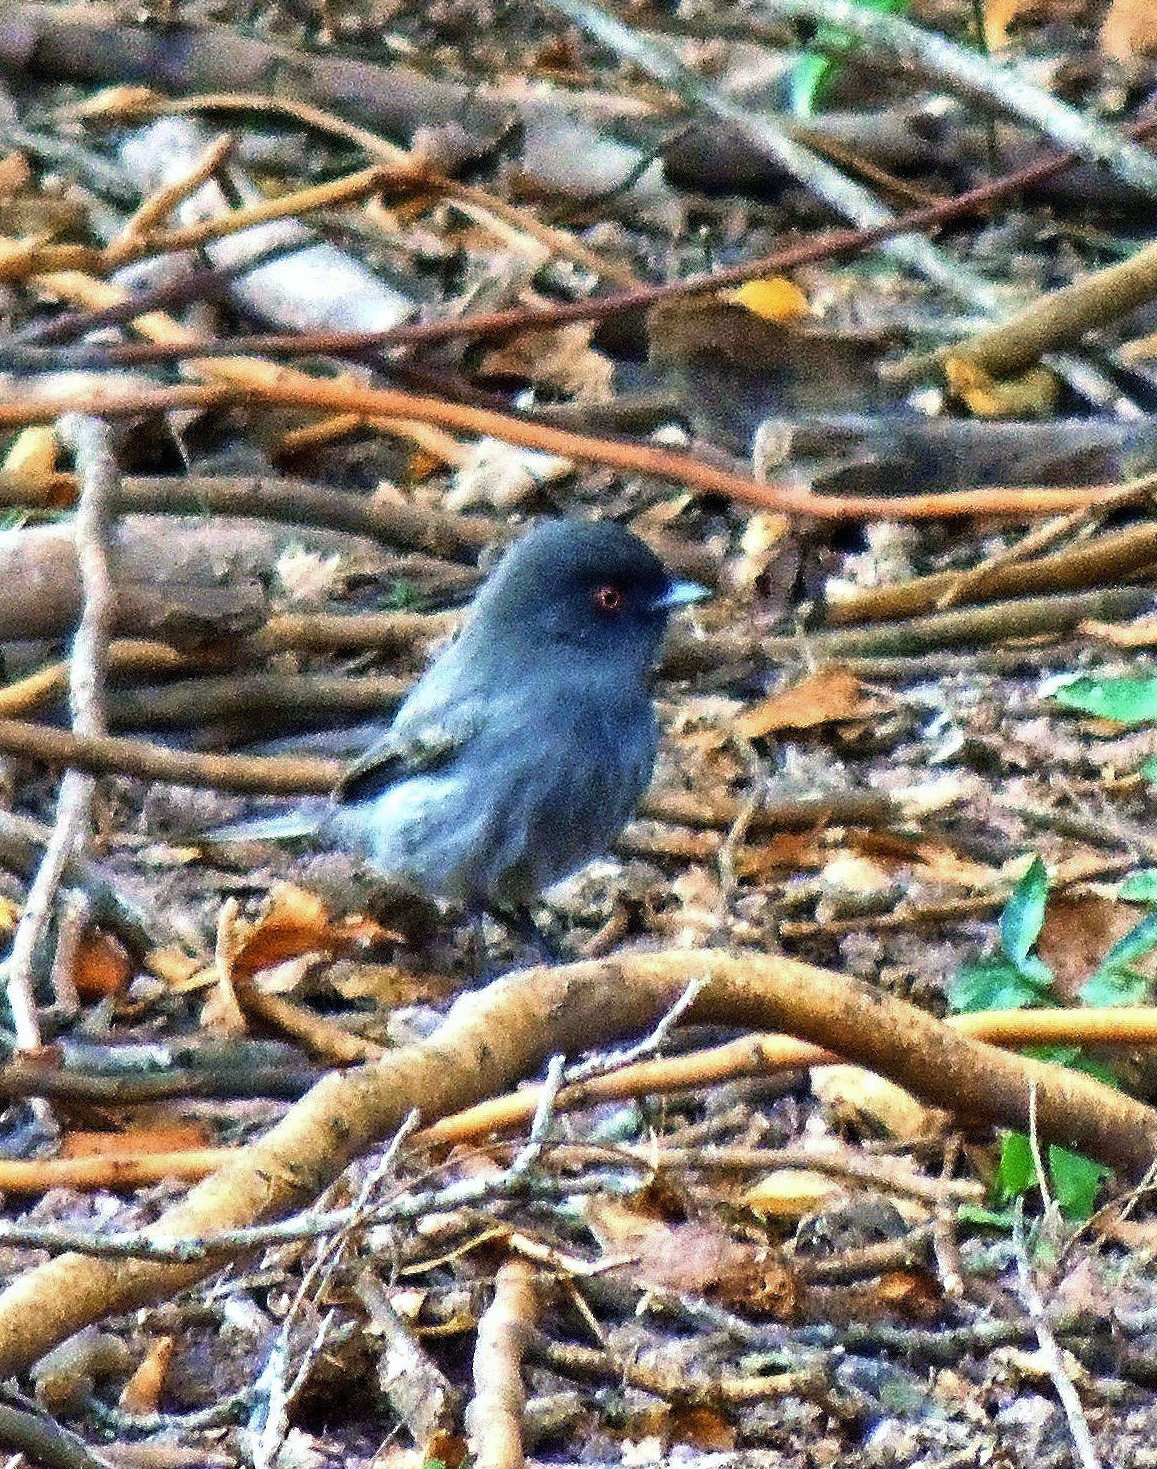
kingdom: Animalia
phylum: Chordata
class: Aves
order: Passeriformes
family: Tyrannidae
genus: Knipolegus
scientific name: Knipolegus striaticeps
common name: Cinereous tyrant
